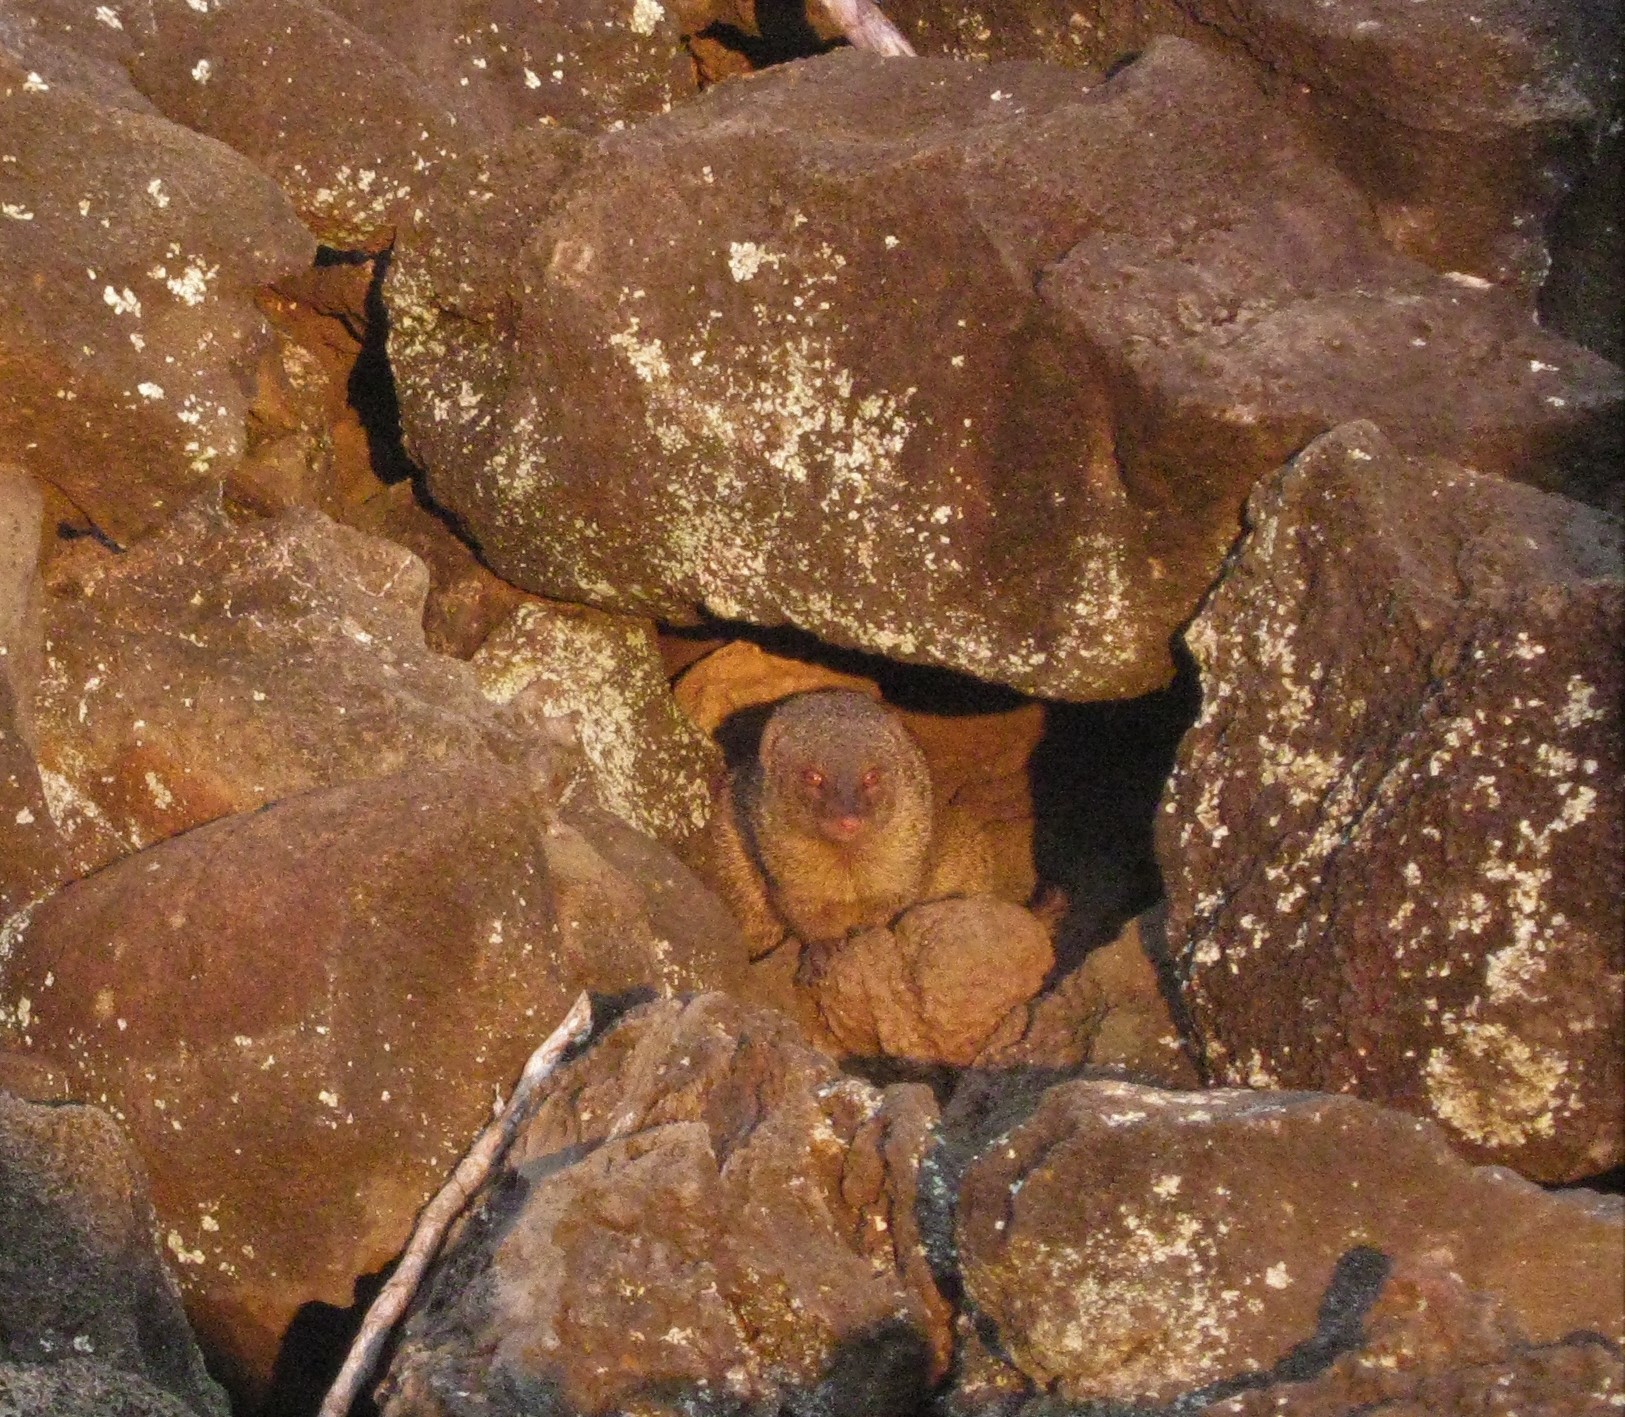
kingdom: Animalia
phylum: Chordata
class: Mammalia
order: Carnivora
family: Herpestidae
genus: Herpestes
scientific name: Herpestes javanicus
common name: Small asian mongoose
